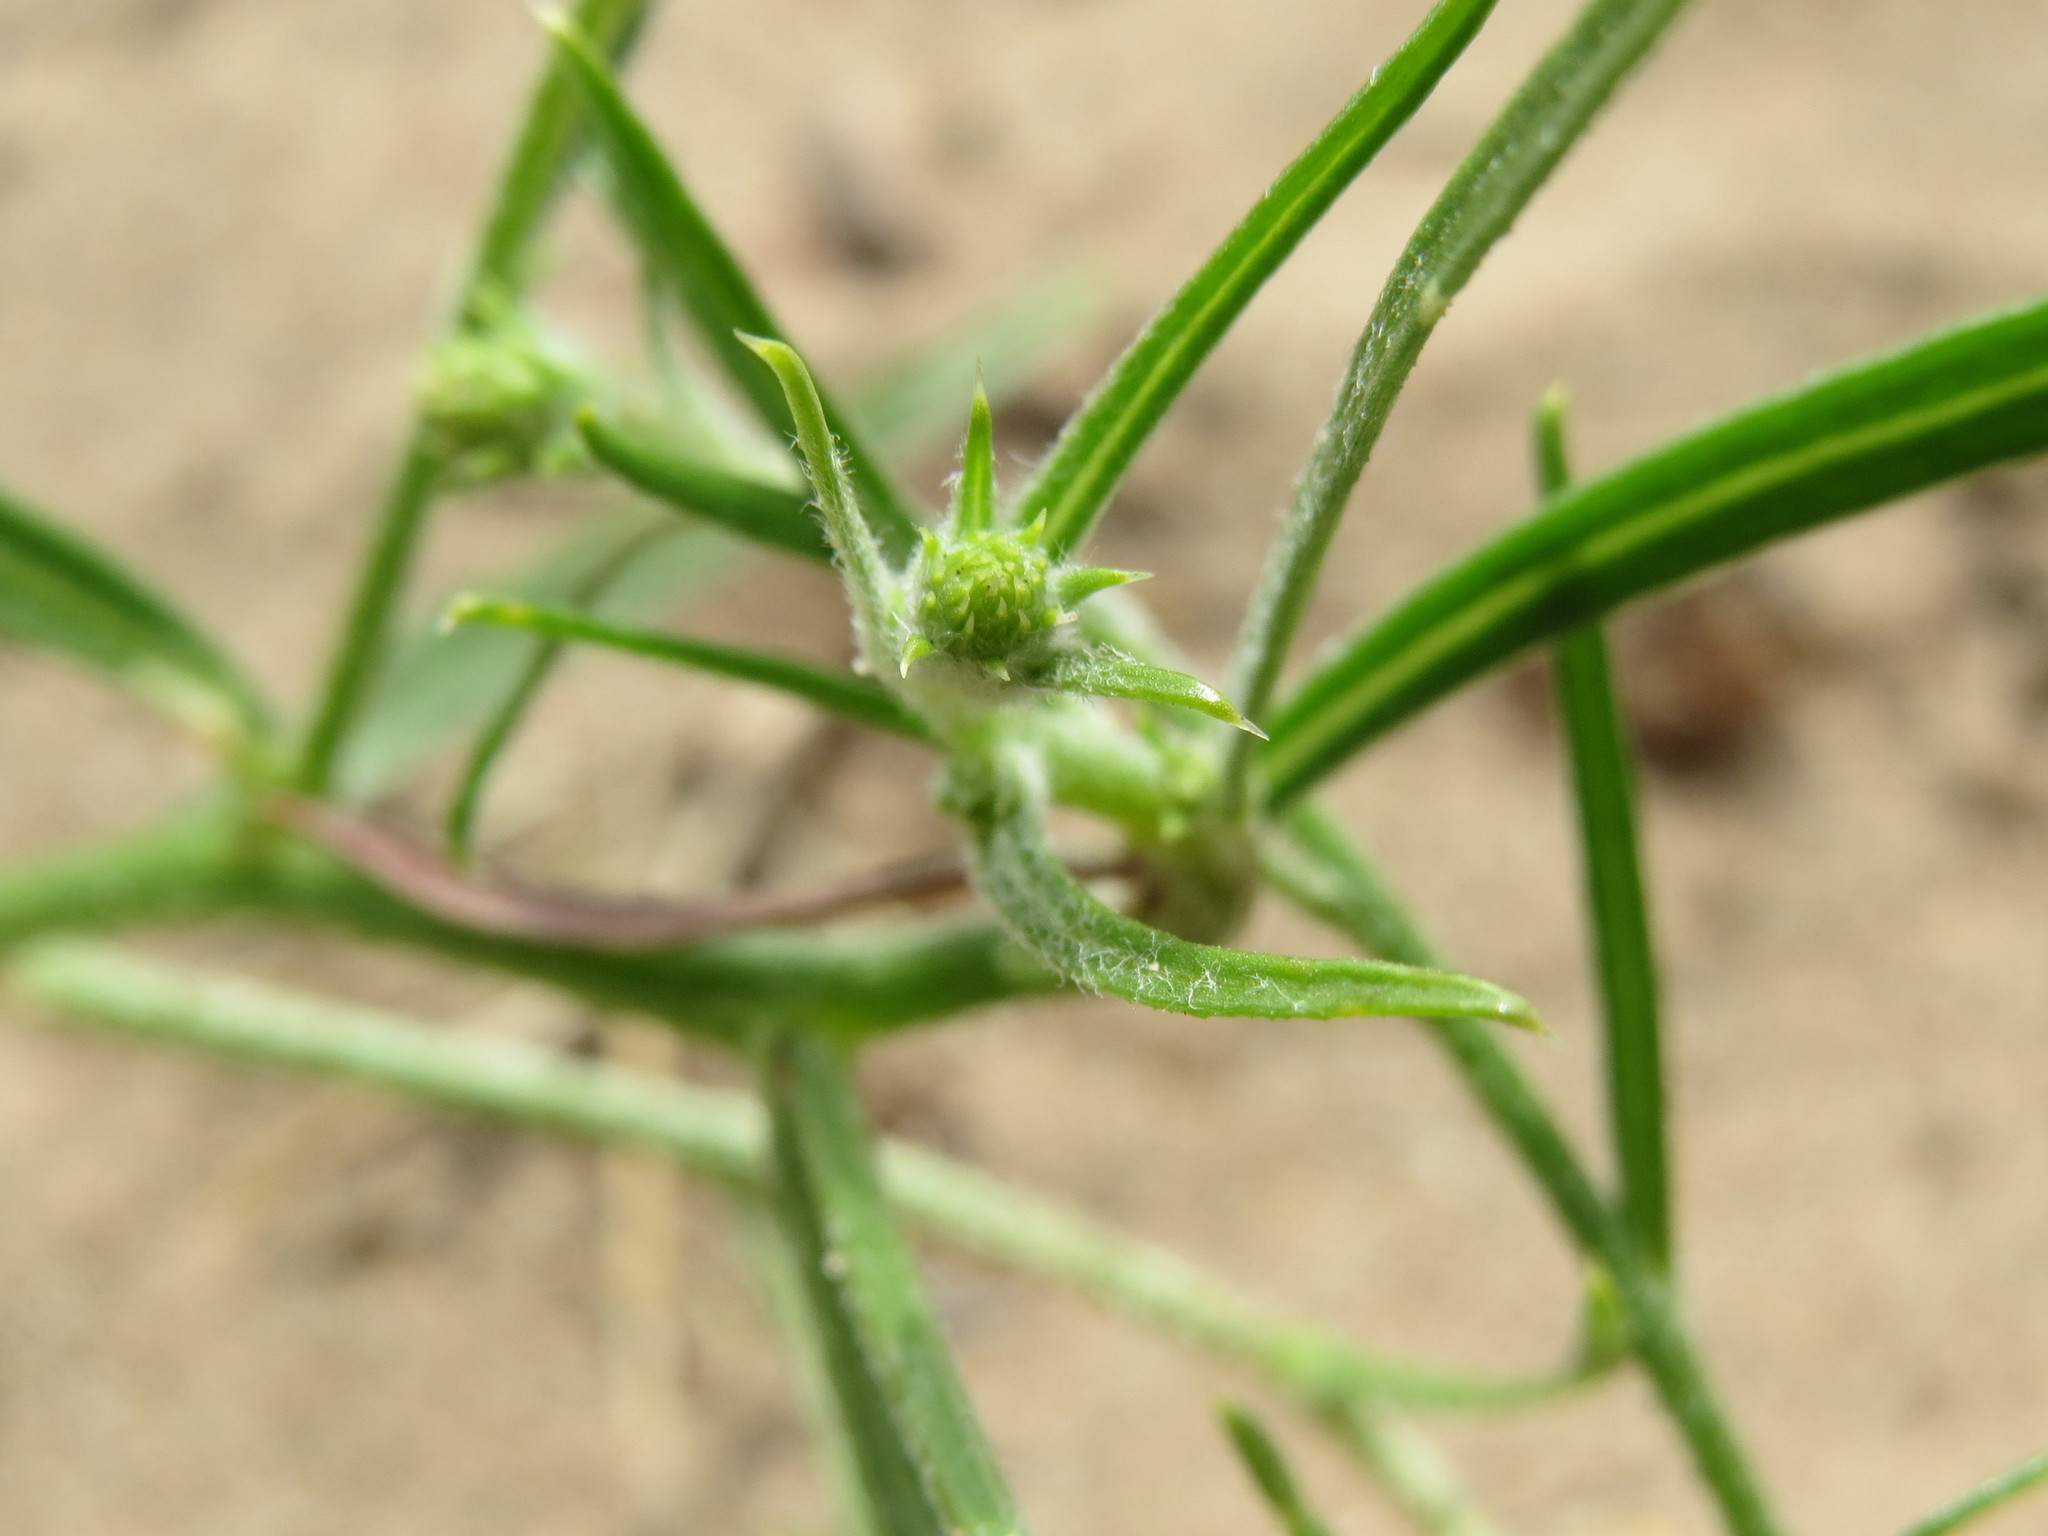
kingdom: Plantae
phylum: Tracheophyta
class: Magnoliopsida
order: Caryophyllales
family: Amaranthaceae
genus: Salsola
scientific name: Salsola tragus
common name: Prickly russian thistle
